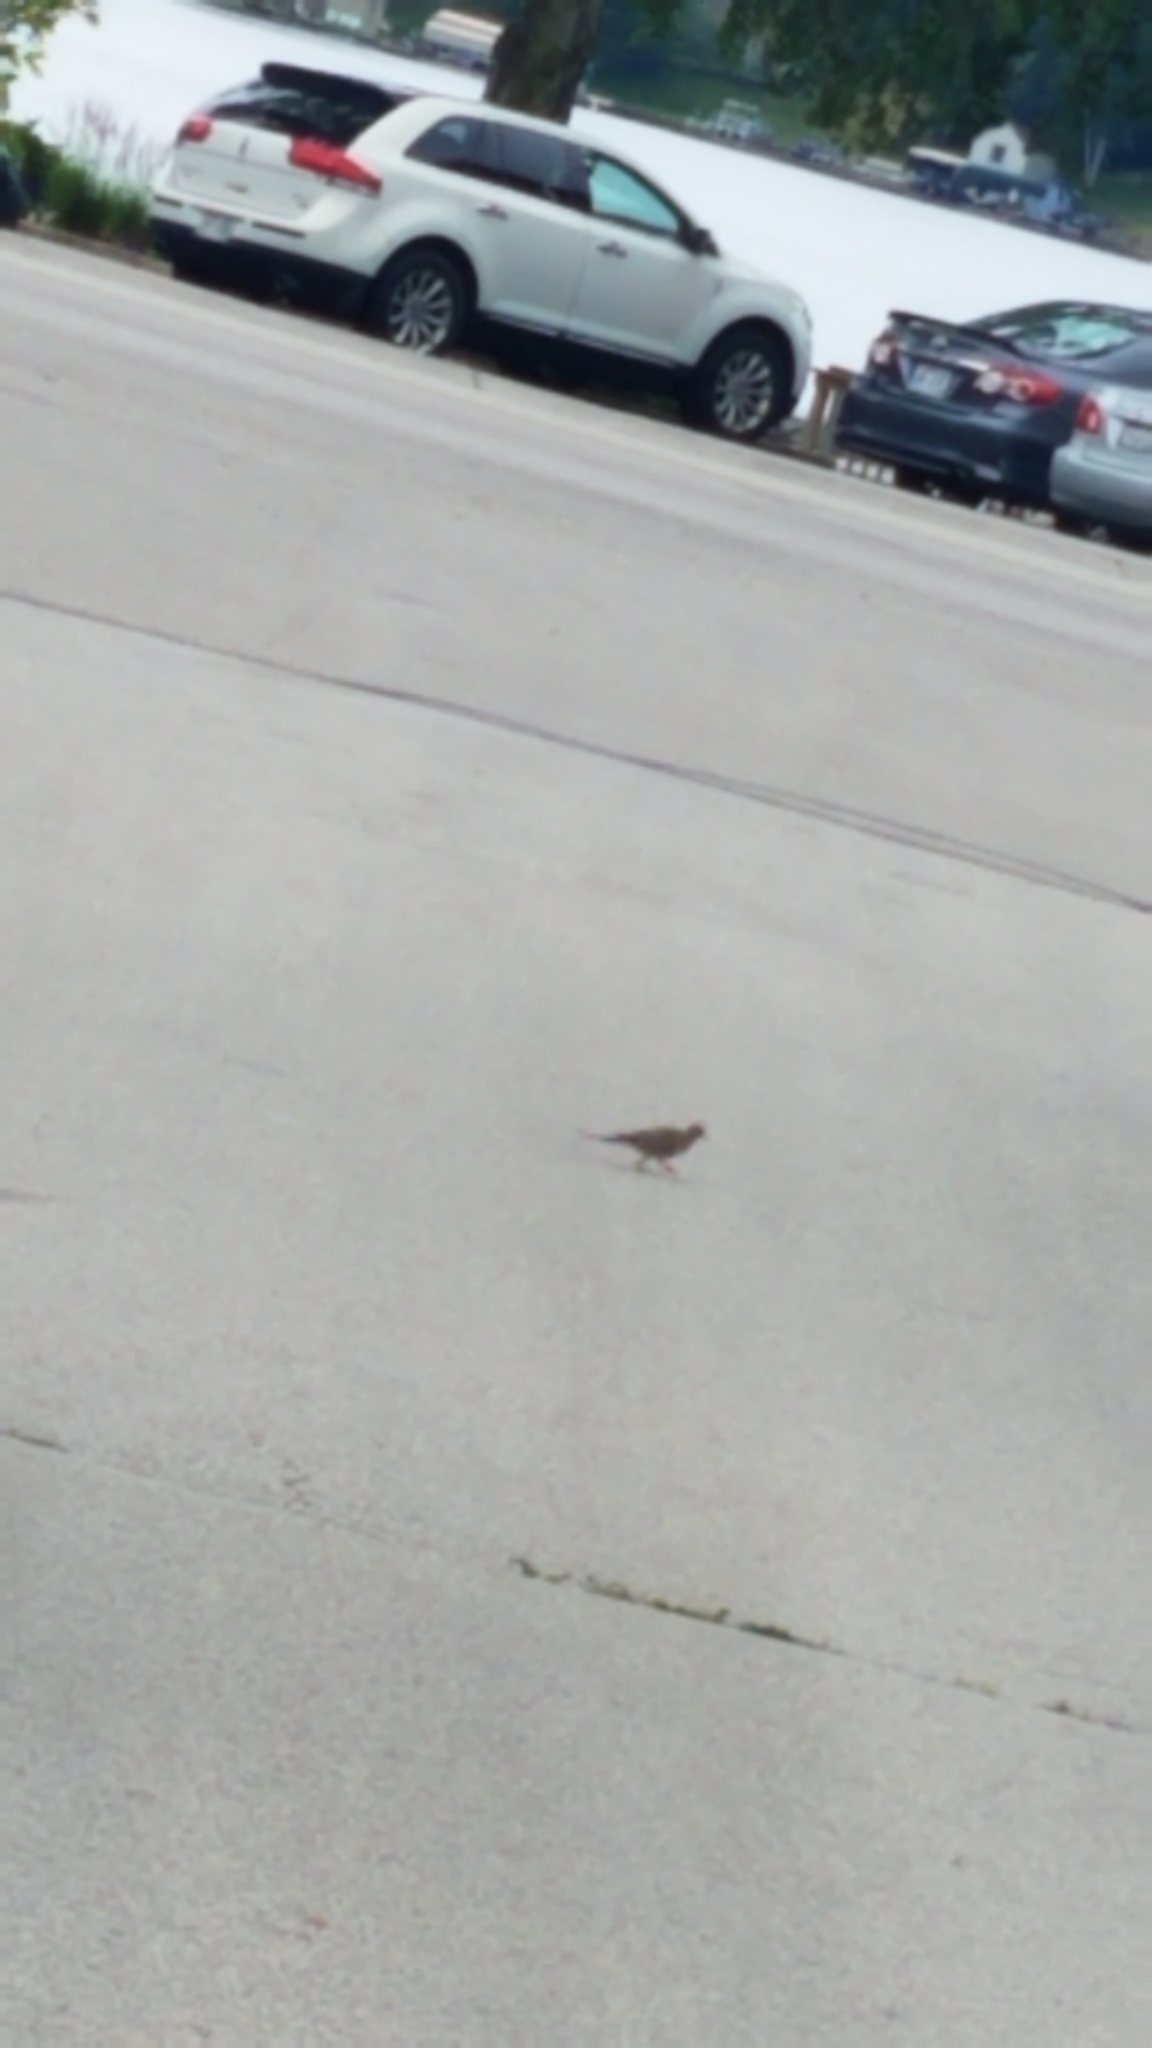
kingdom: Animalia
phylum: Chordata
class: Aves
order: Columbiformes
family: Columbidae
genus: Zenaida
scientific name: Zenaida macroura
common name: Mourning dove
